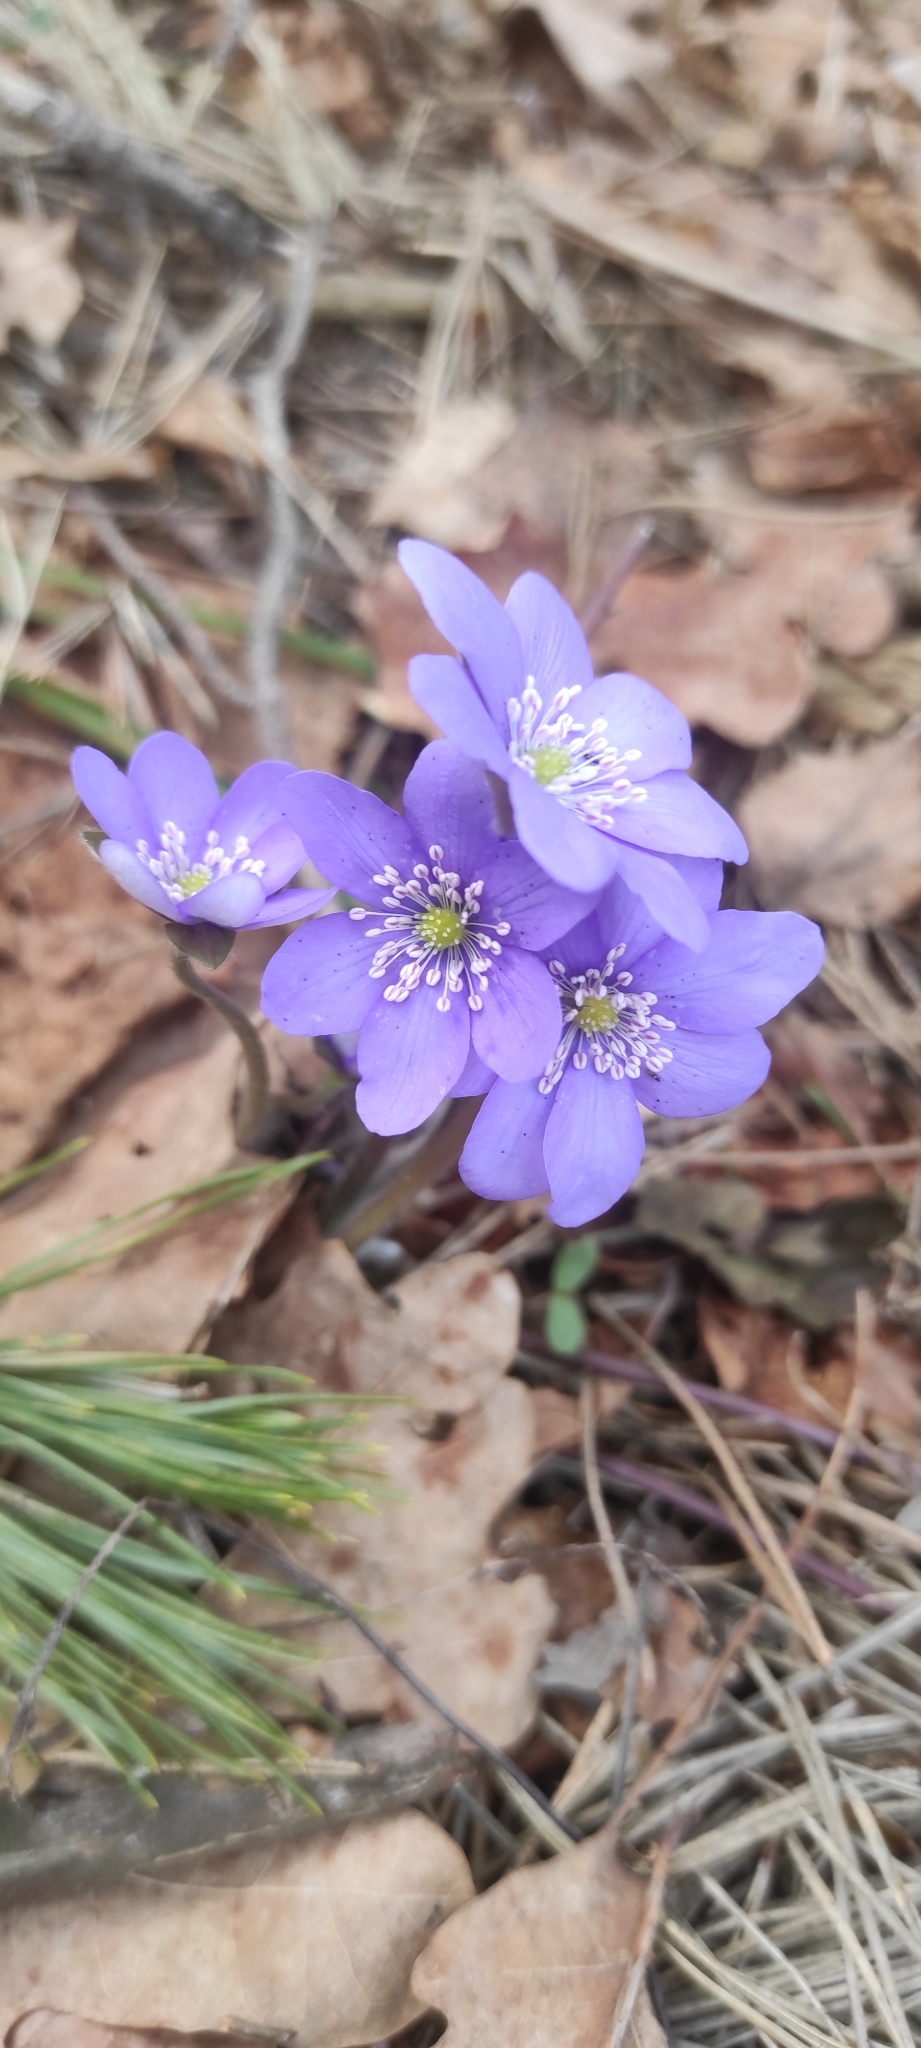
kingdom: Plantae
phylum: Tracheophyta
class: Magnoliopsida
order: Ranunculales
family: Ranunculaceae
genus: Hepatica
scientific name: Hepatica nobilis
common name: Liverleaf
